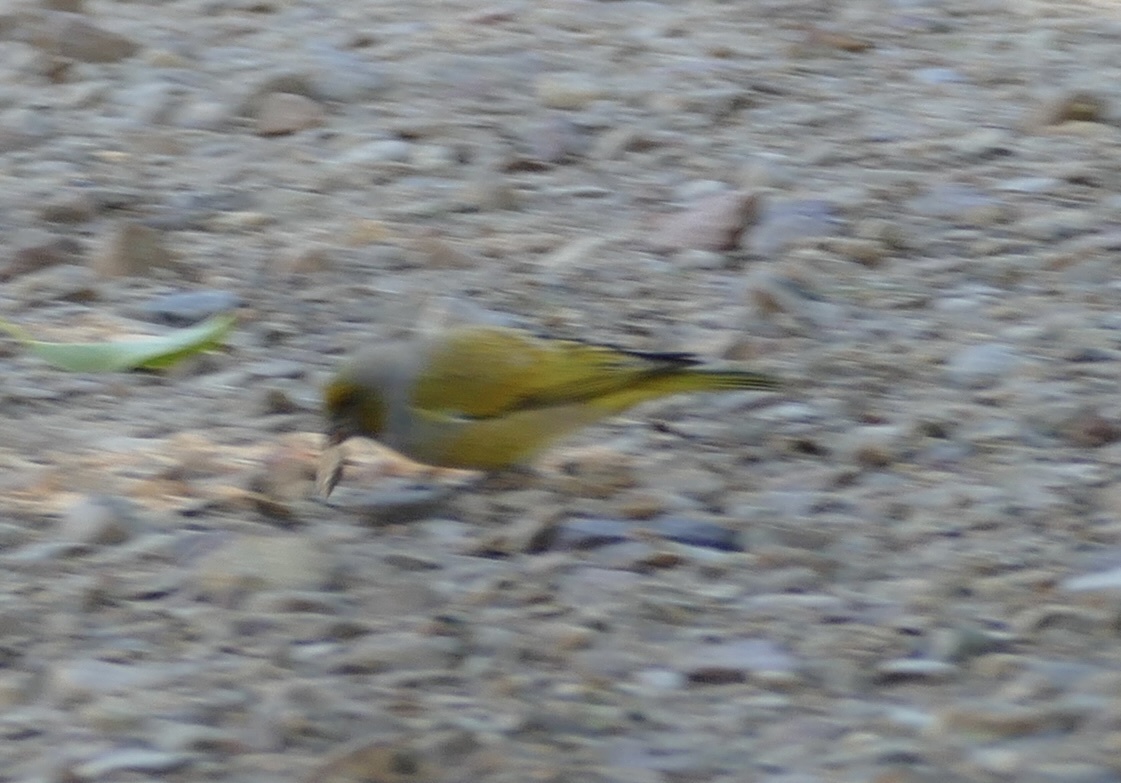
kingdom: Animalia
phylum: Chordata
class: Aves
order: Passeriformes
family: Fringillidae
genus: Serinus
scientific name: Serinus canicollis
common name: Cape canary
